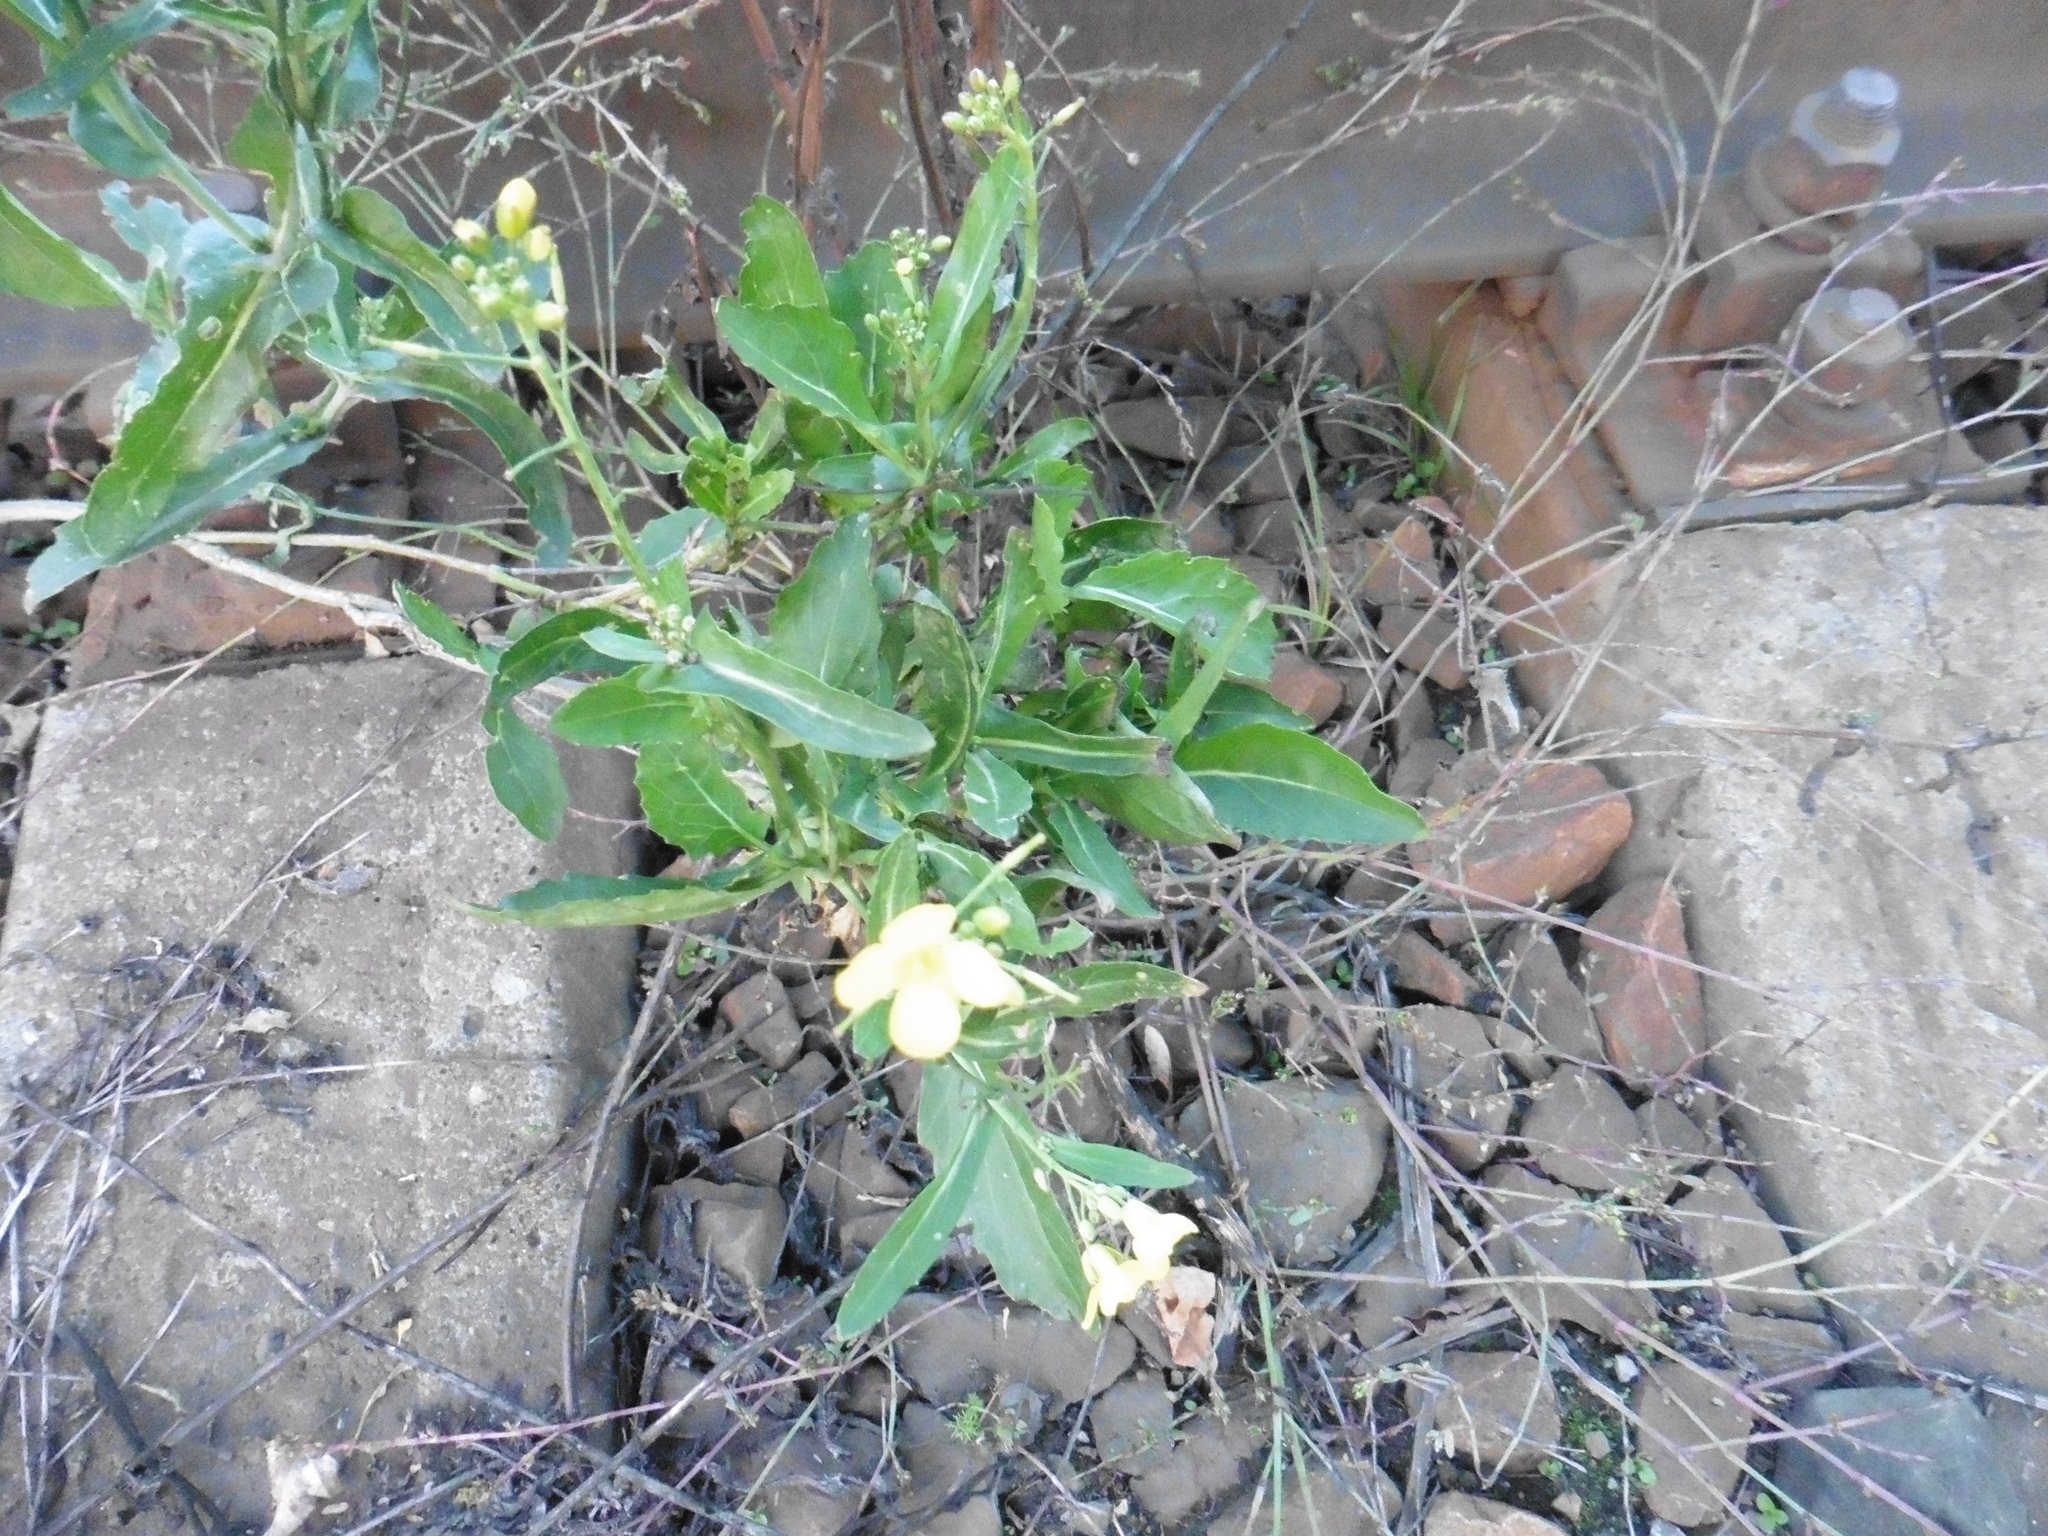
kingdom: Plantae
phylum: Tracheophyta
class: Magnoliopsida
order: Brassicales
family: Brassicaceae
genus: Sisymbrium
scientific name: Sisymbrium volgense
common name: Russian mustard
